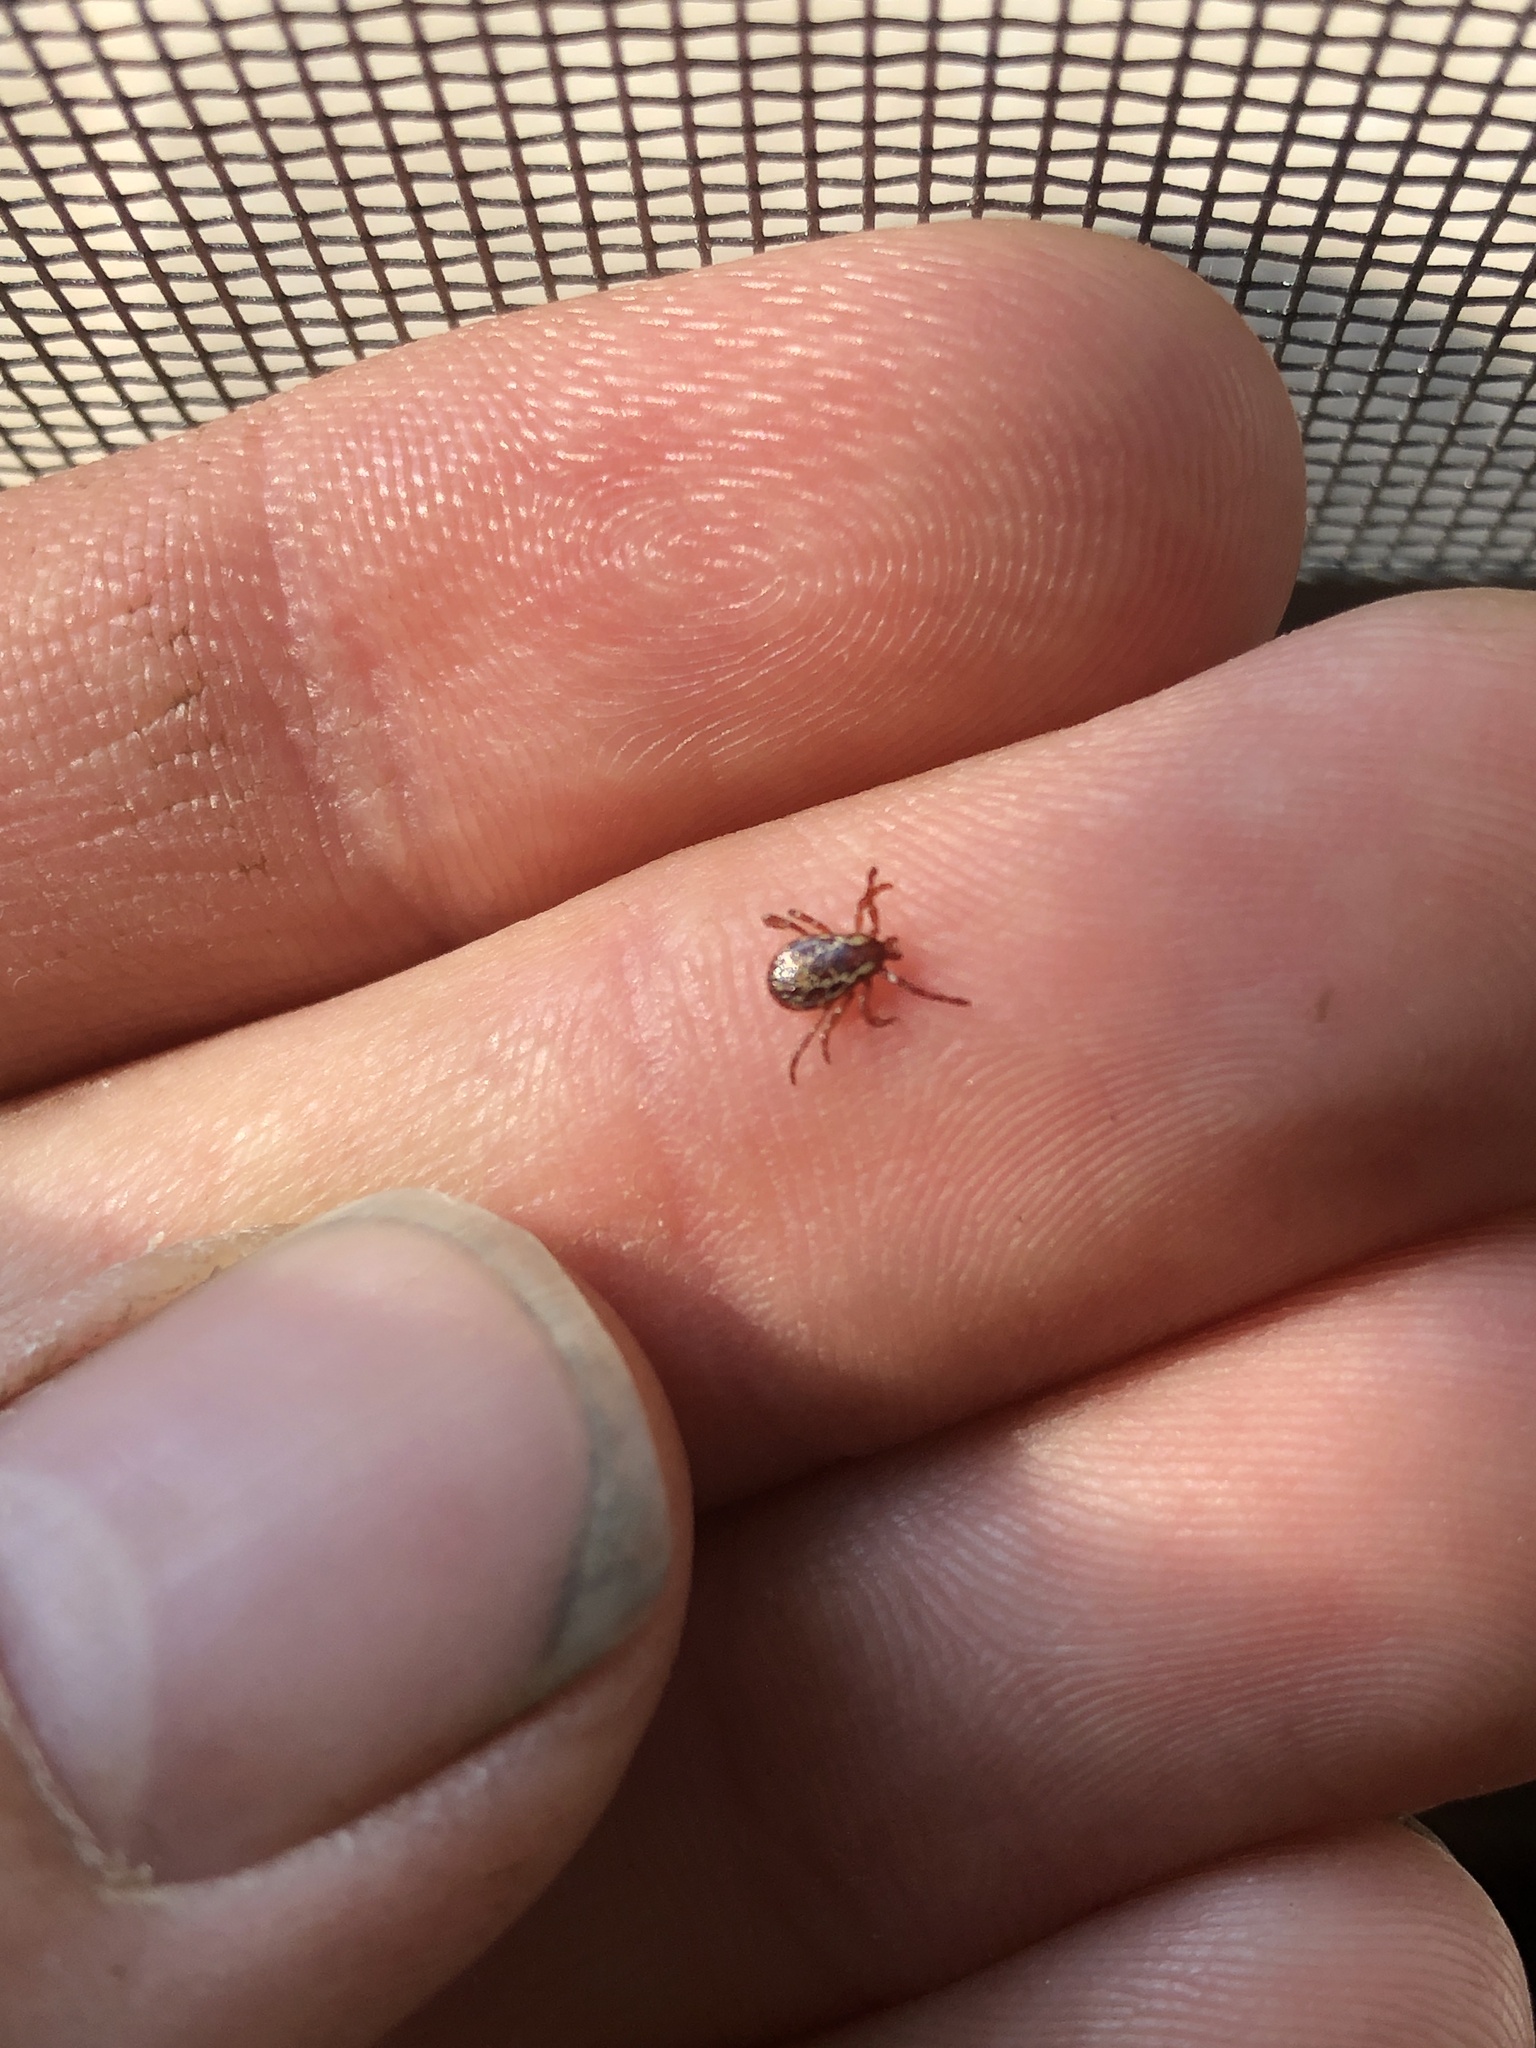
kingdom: Animalia
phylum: Arthropoda
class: Arachnida
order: Ixodida
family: Ixodidae
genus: Dermacentor
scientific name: Dermacentor variabilis
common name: American dog tick
